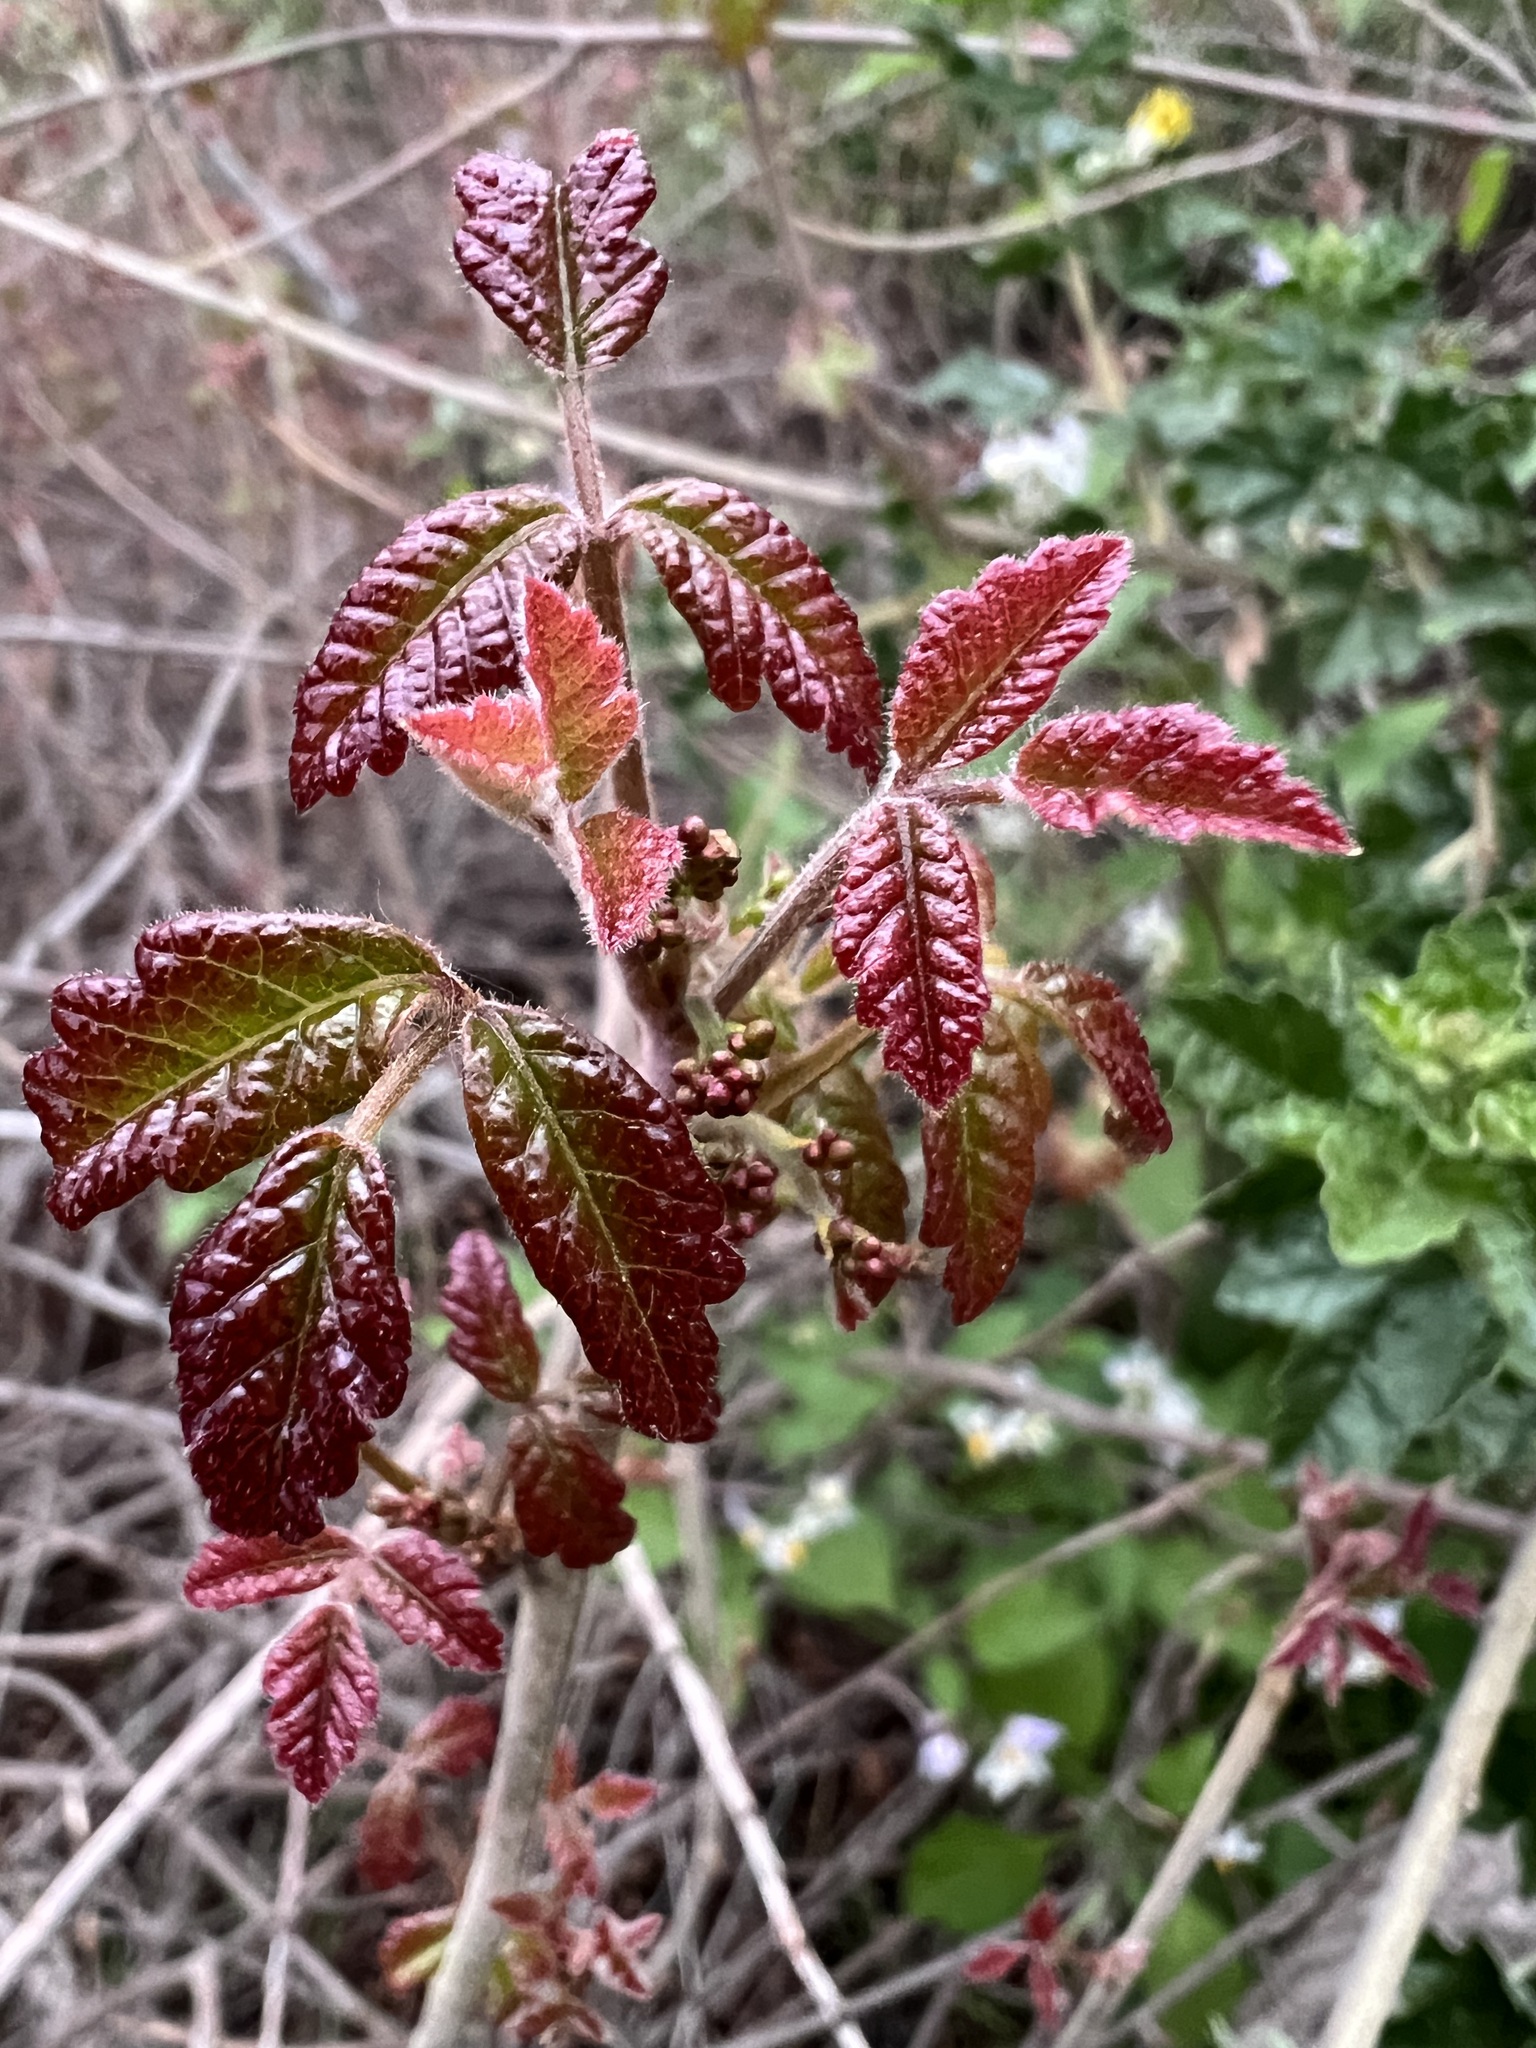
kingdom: Plantae
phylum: Tracheophyta
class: Magnoliopsida
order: Sapindales
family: Anacardiaceae
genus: Toxicodendron
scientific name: Toxicodendron diversilobum
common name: Pacific poison-oak
